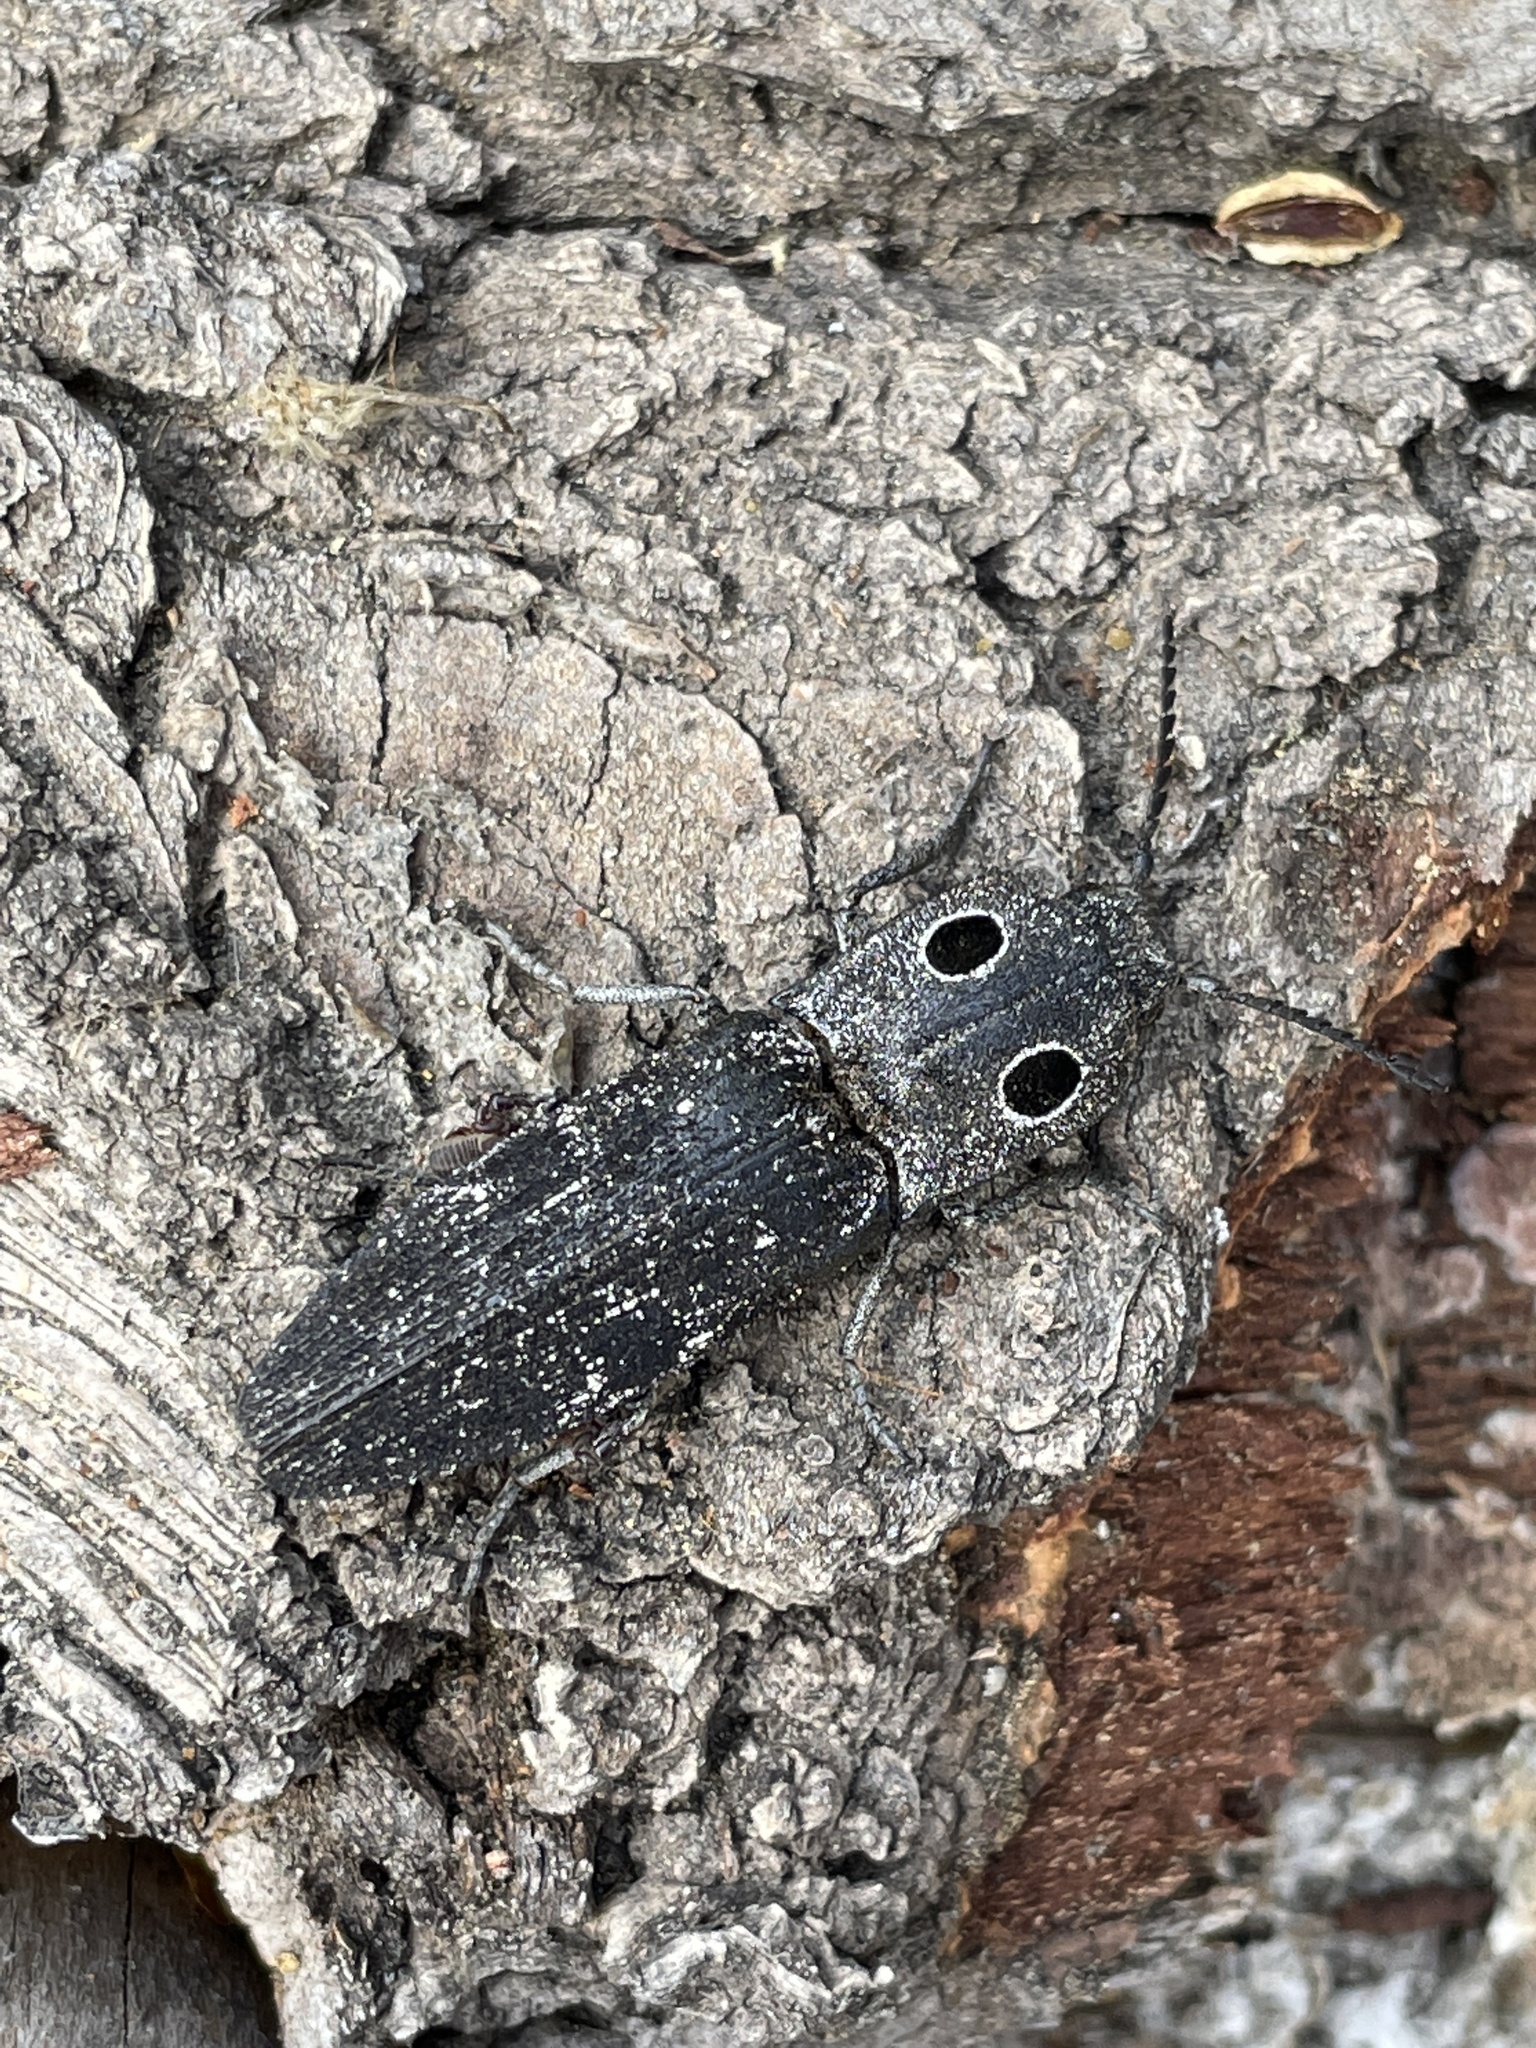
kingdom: Animalia
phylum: Arthropoda
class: Insecta
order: Coleoptera
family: Elateridae
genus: Alaus
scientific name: Alaus melanops
